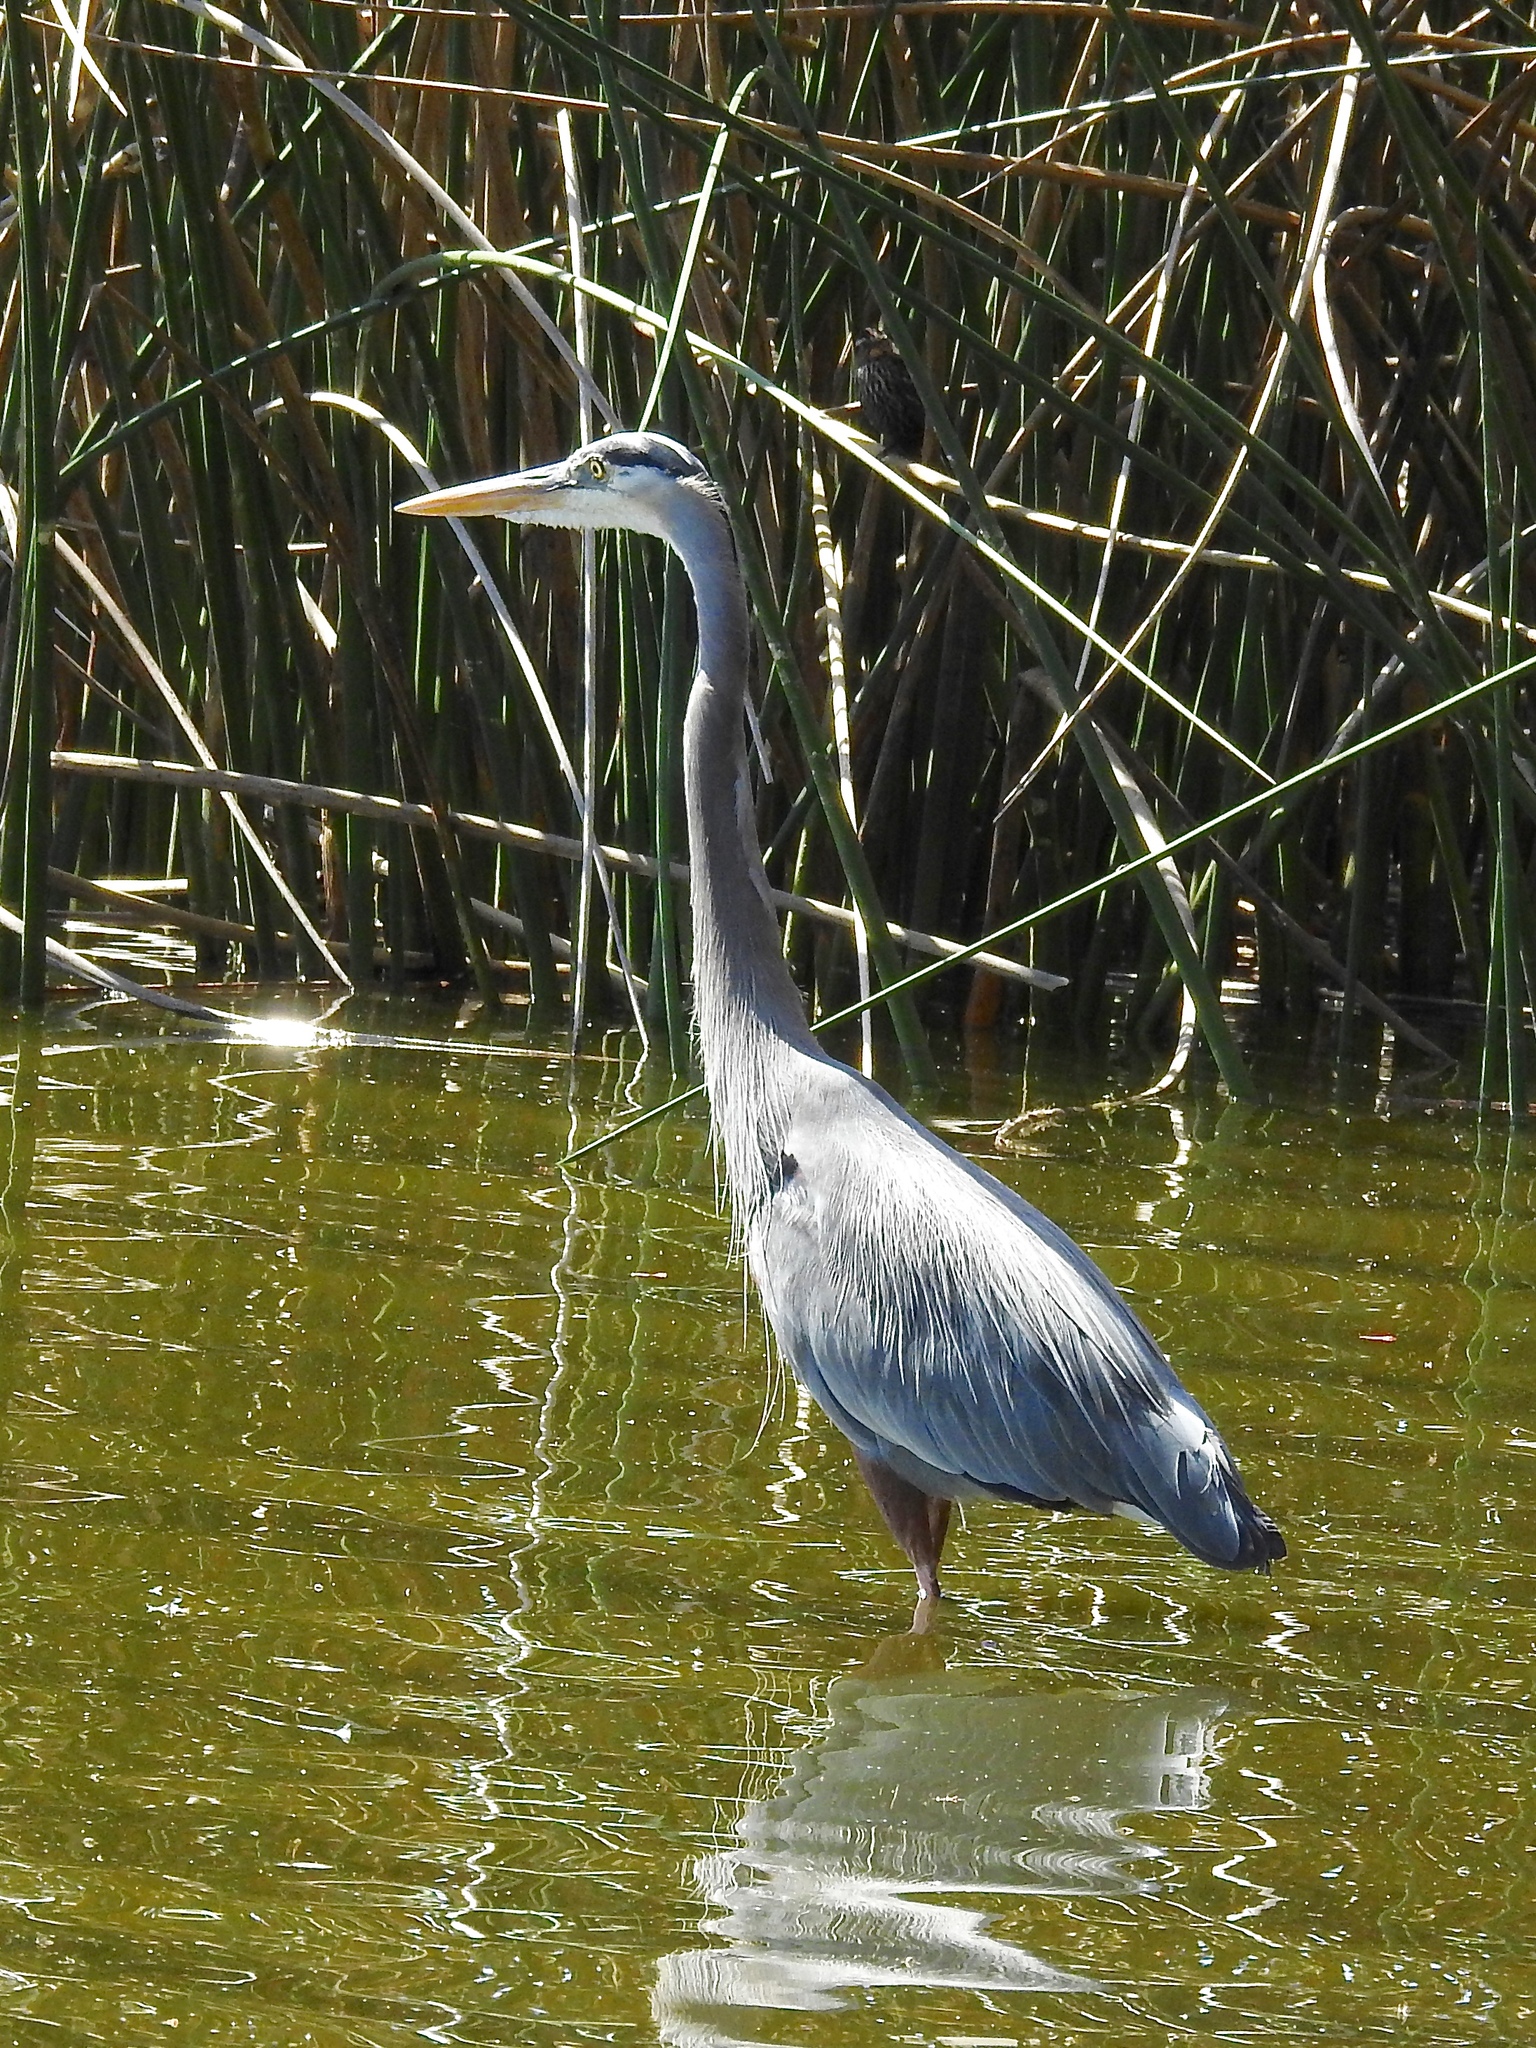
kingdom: Animalia
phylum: Chordata
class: Aves
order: Pelecaniformes
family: Ardeidae
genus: Ardea
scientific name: Ardea herodias
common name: Great blue heron
